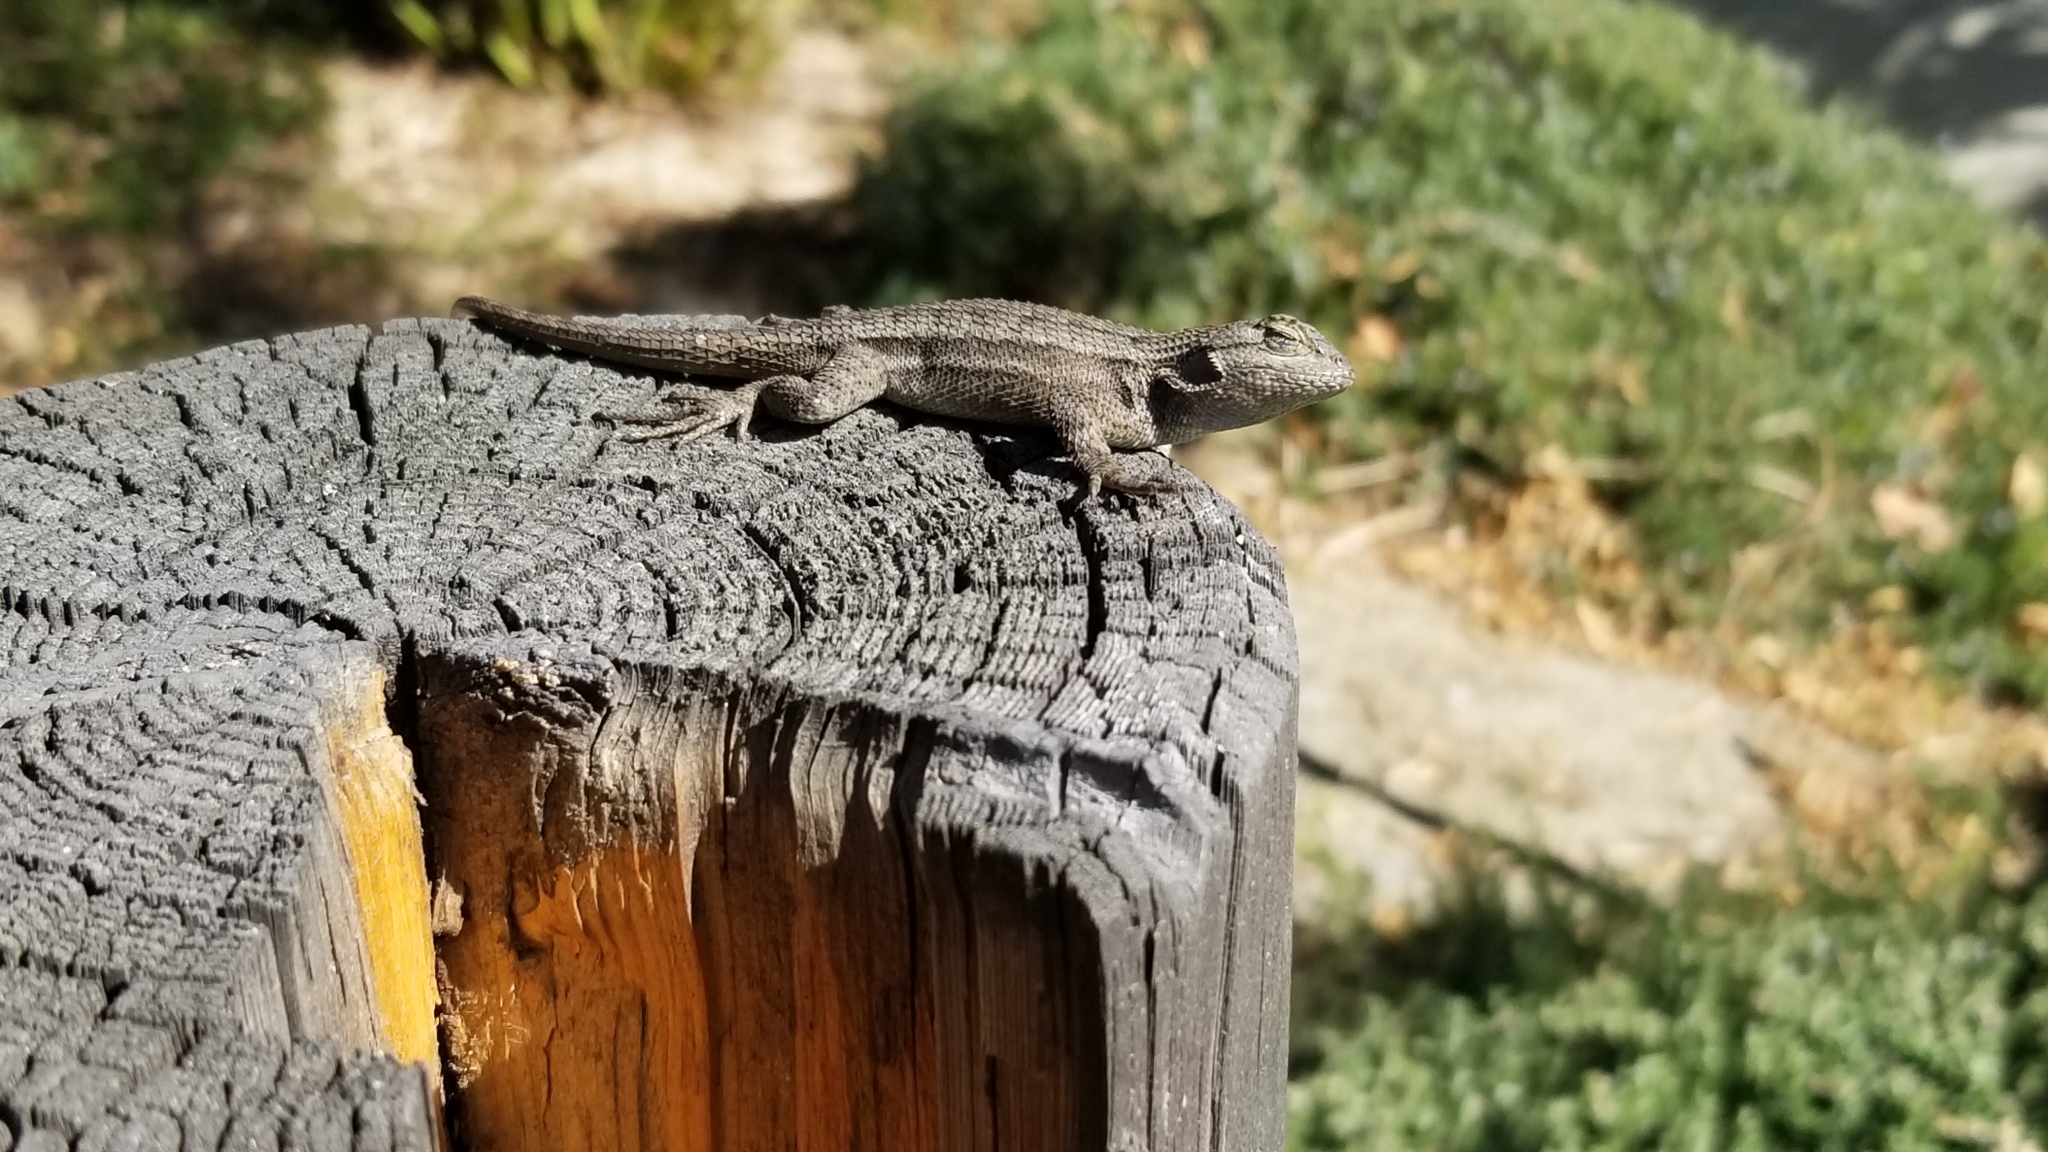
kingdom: Animalia
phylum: Chordata
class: Squamata
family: Phrynosomatidae
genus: Sceloporus
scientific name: Sceloporus occidentalis
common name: Western fence lizard
